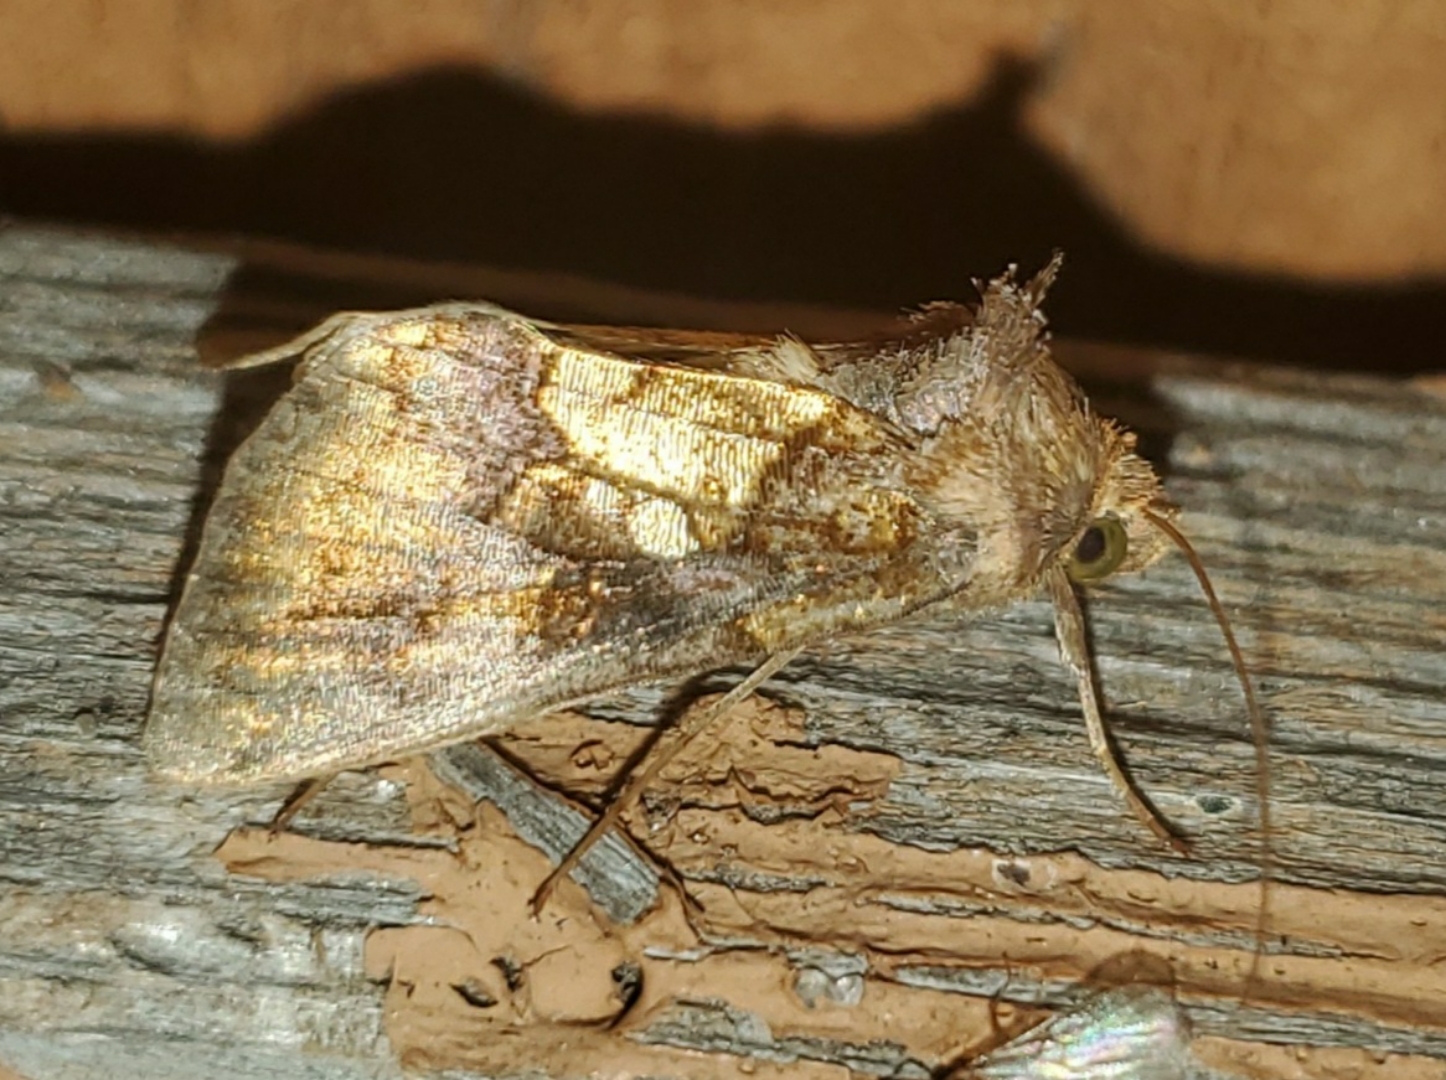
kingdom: Animalia
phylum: Arthropoda
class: Insecta
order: Lepidoptera
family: Noctuidae
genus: Argyrogramma
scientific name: Argyrogramma verruca
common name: Golden looper moth
